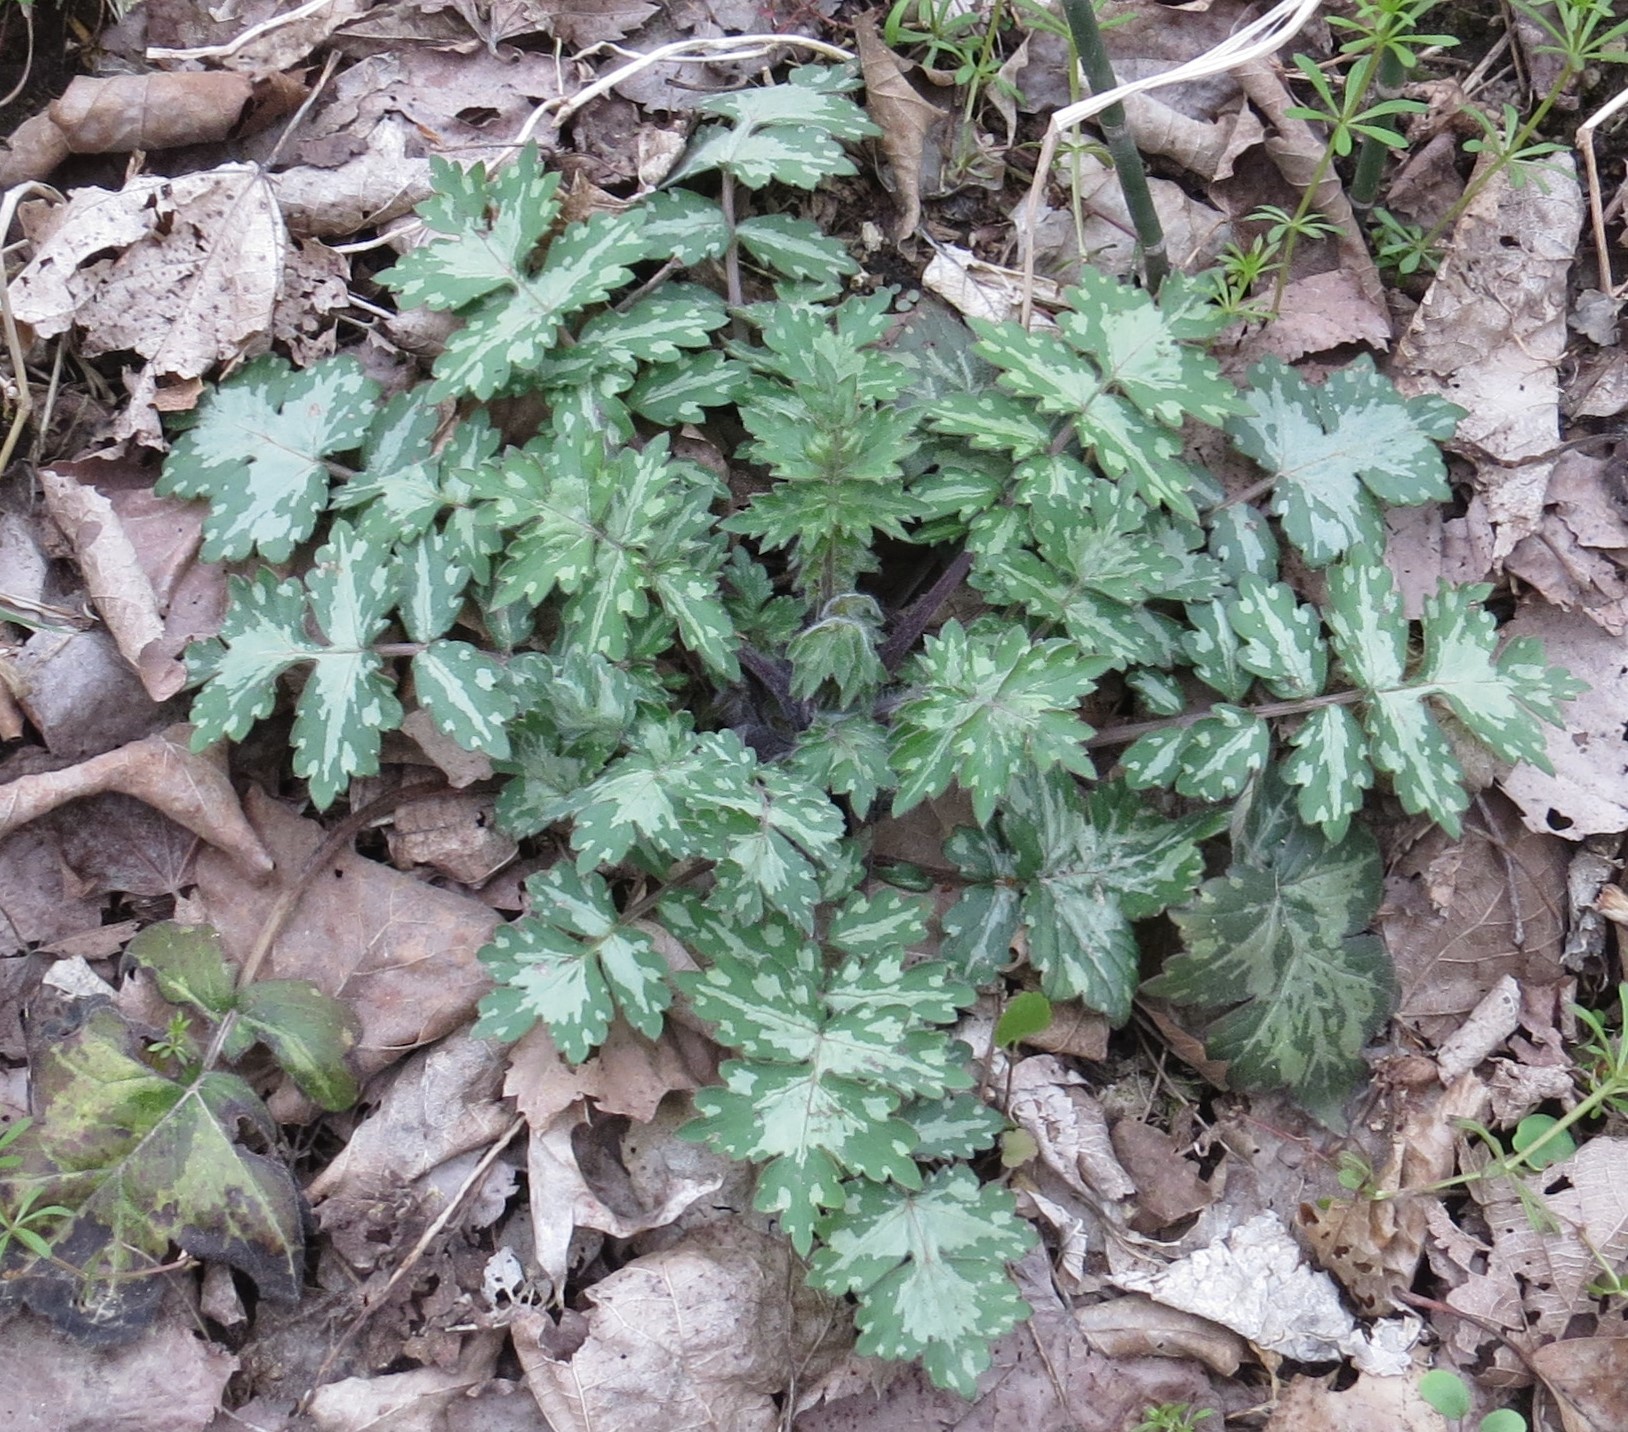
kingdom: Plantae
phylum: Tracheophyta
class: Magnoliopsida
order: Boraginales
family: Hydrophyllaceae
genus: Hydrophyllum
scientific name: Hydrophyllum appendiculatum
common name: Appendaged waterleaf
